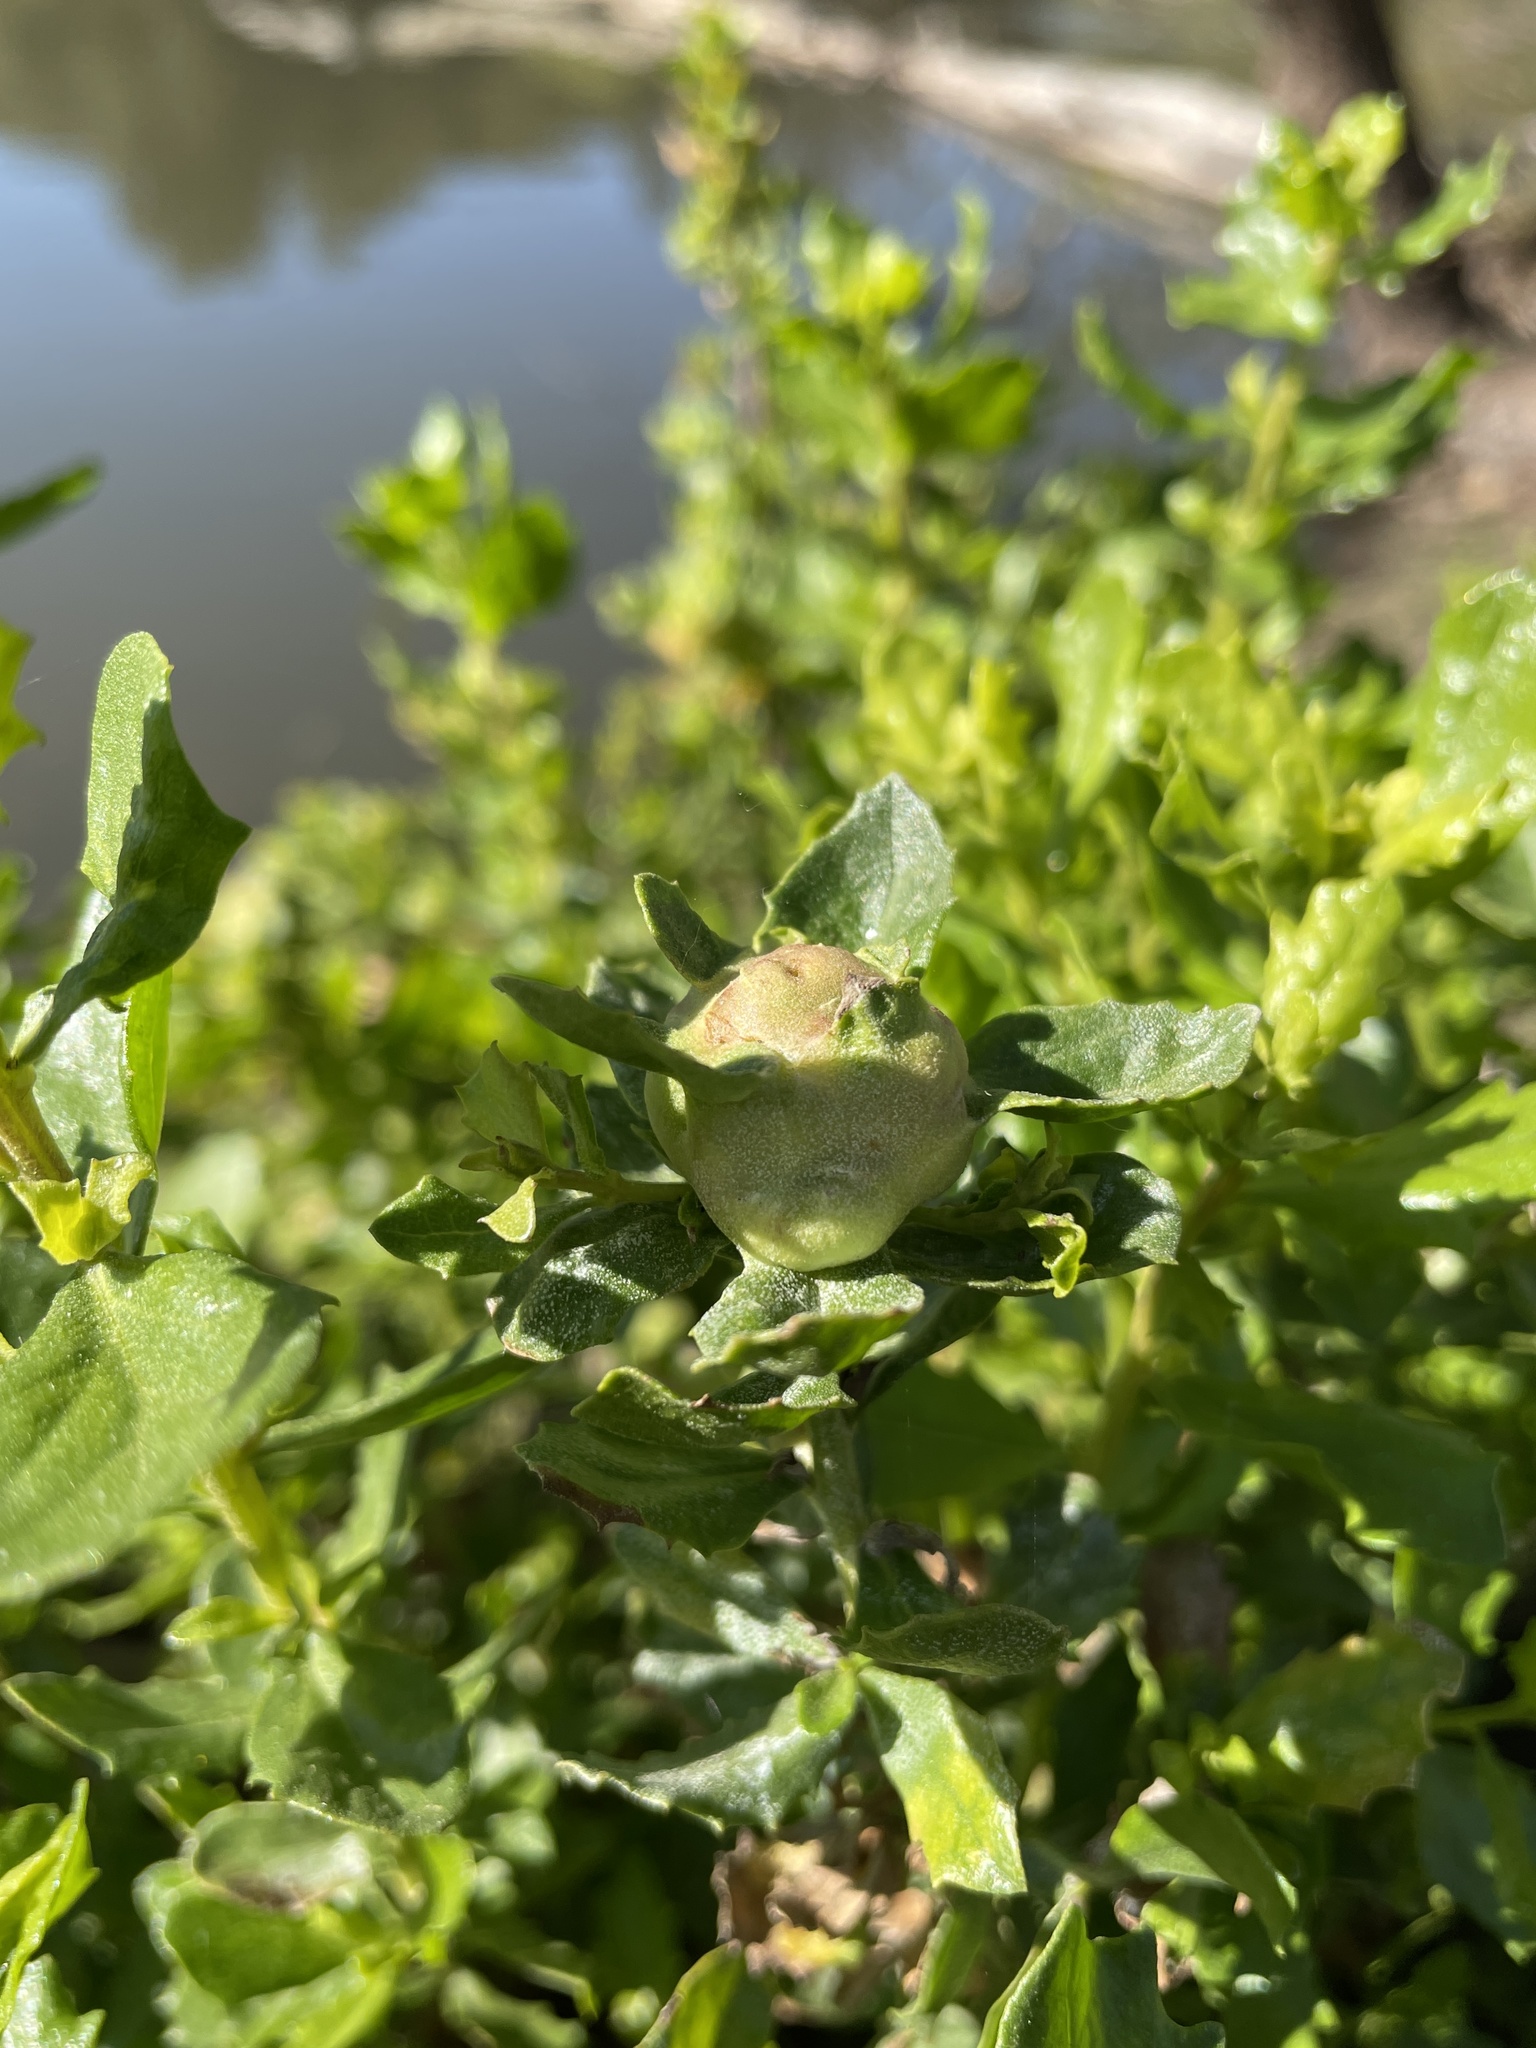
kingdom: Animalia
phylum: Arthropoda
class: Insecta
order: Diptera
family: Cecidomyiidae
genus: Rhopalomyia
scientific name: Rhopalomyia californica
